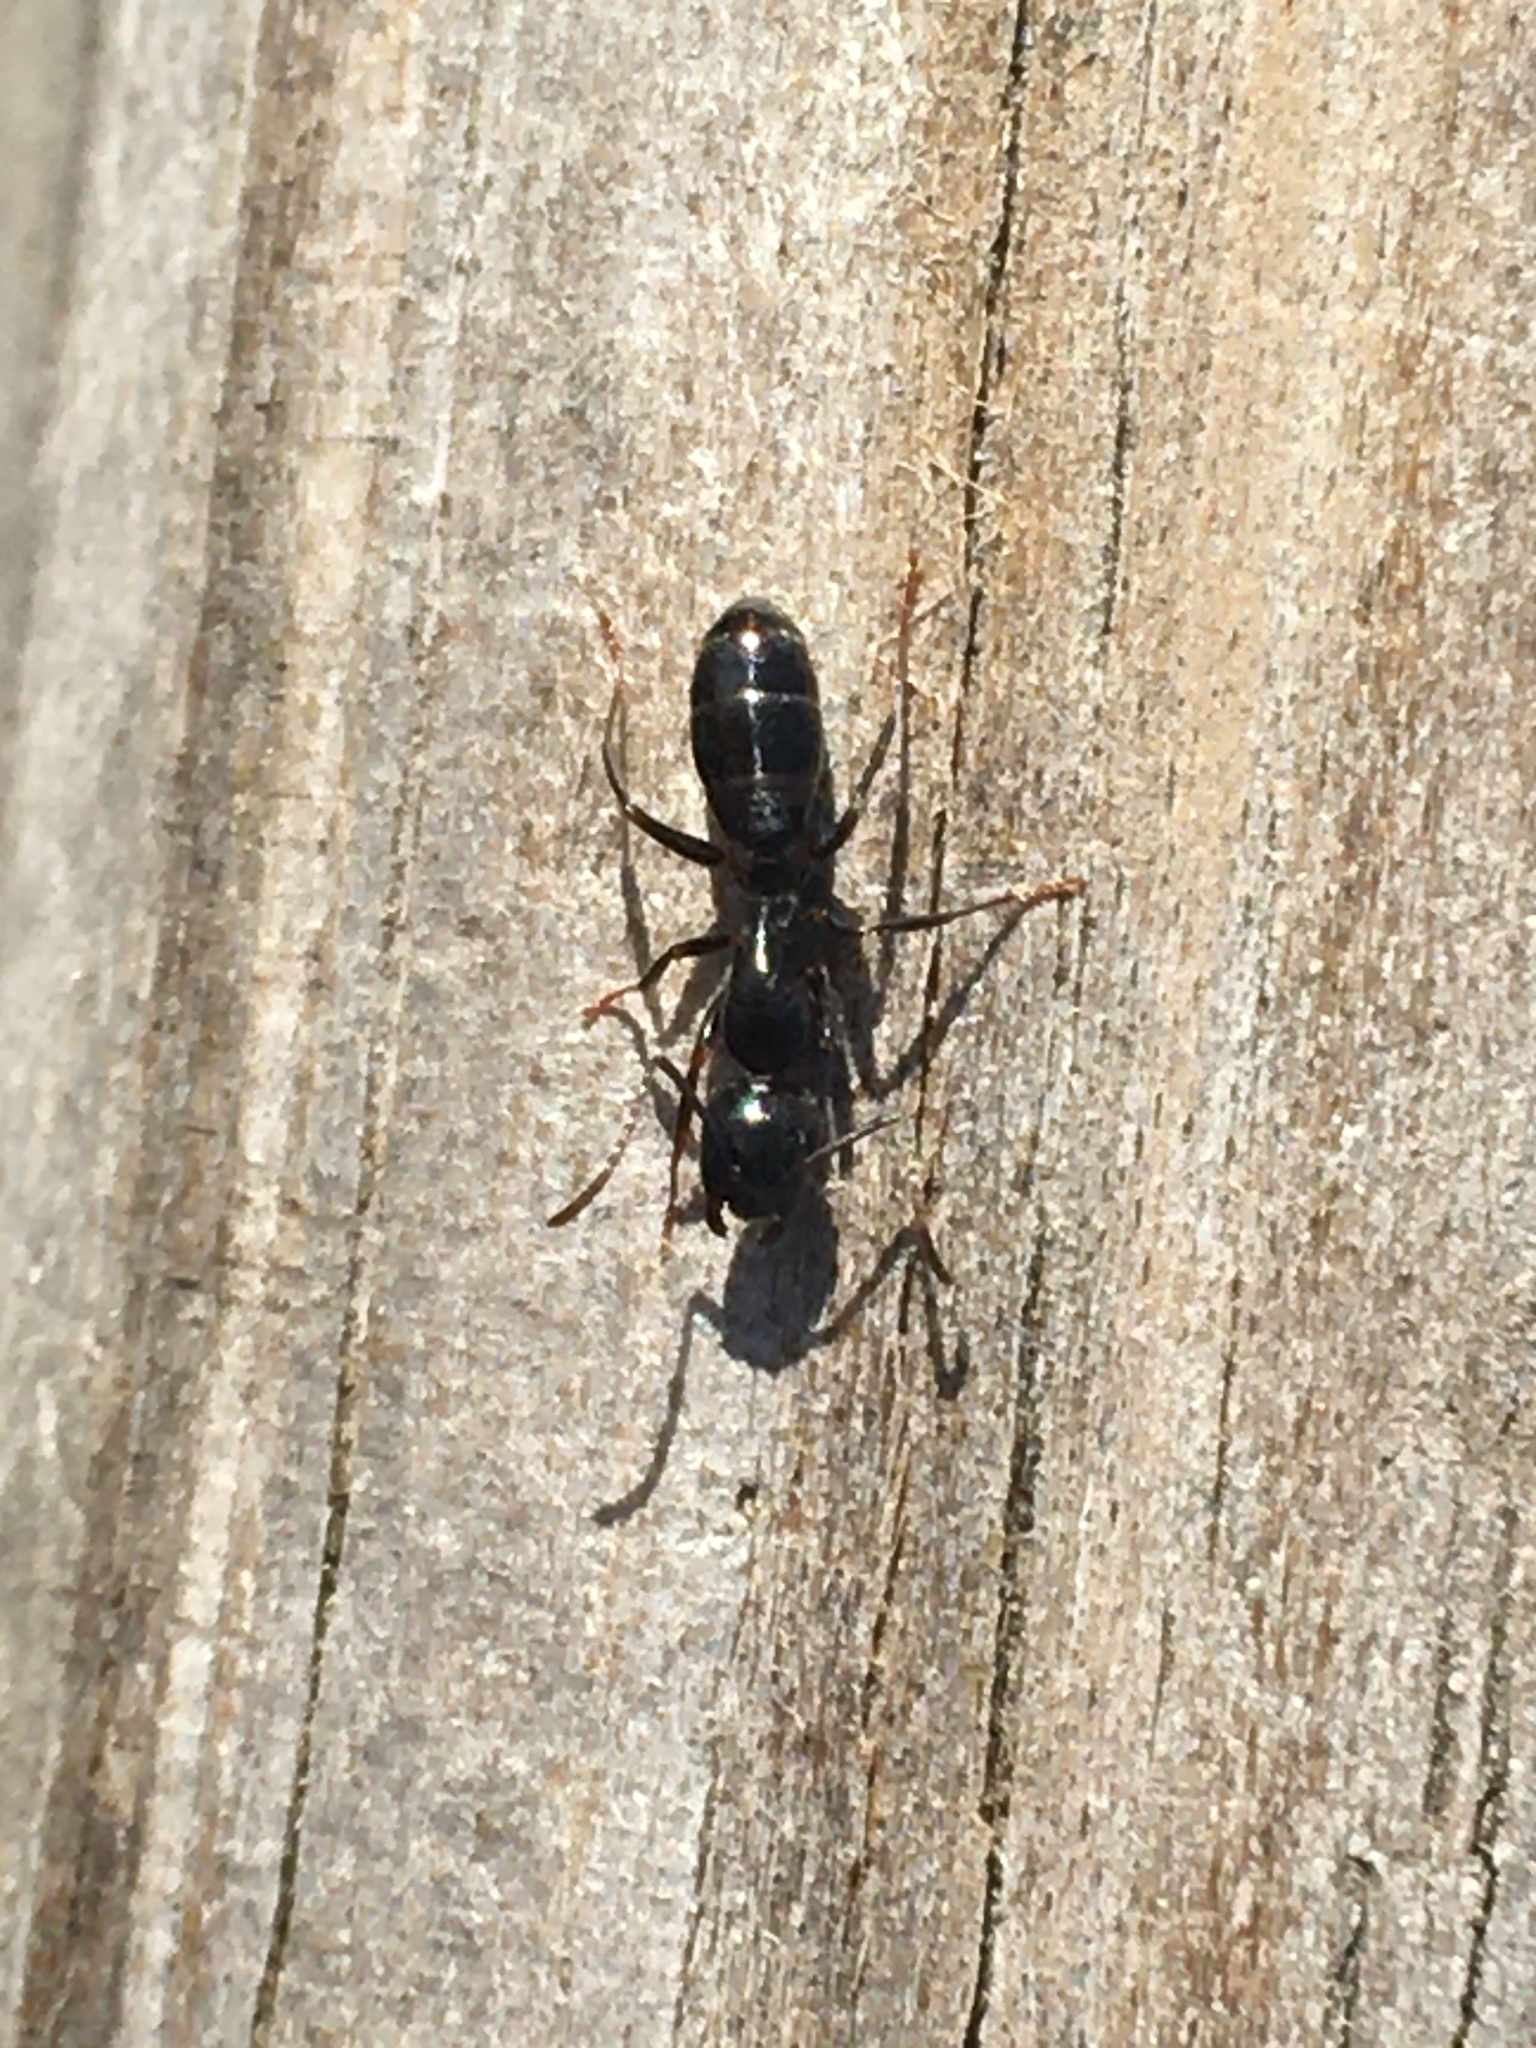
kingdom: Animalia
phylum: Arthropoda
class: Insecta
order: Hymenoptera
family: Formicidae
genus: Camponotus
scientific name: Camponotus nearcticus
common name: Smaller carpenter ant
